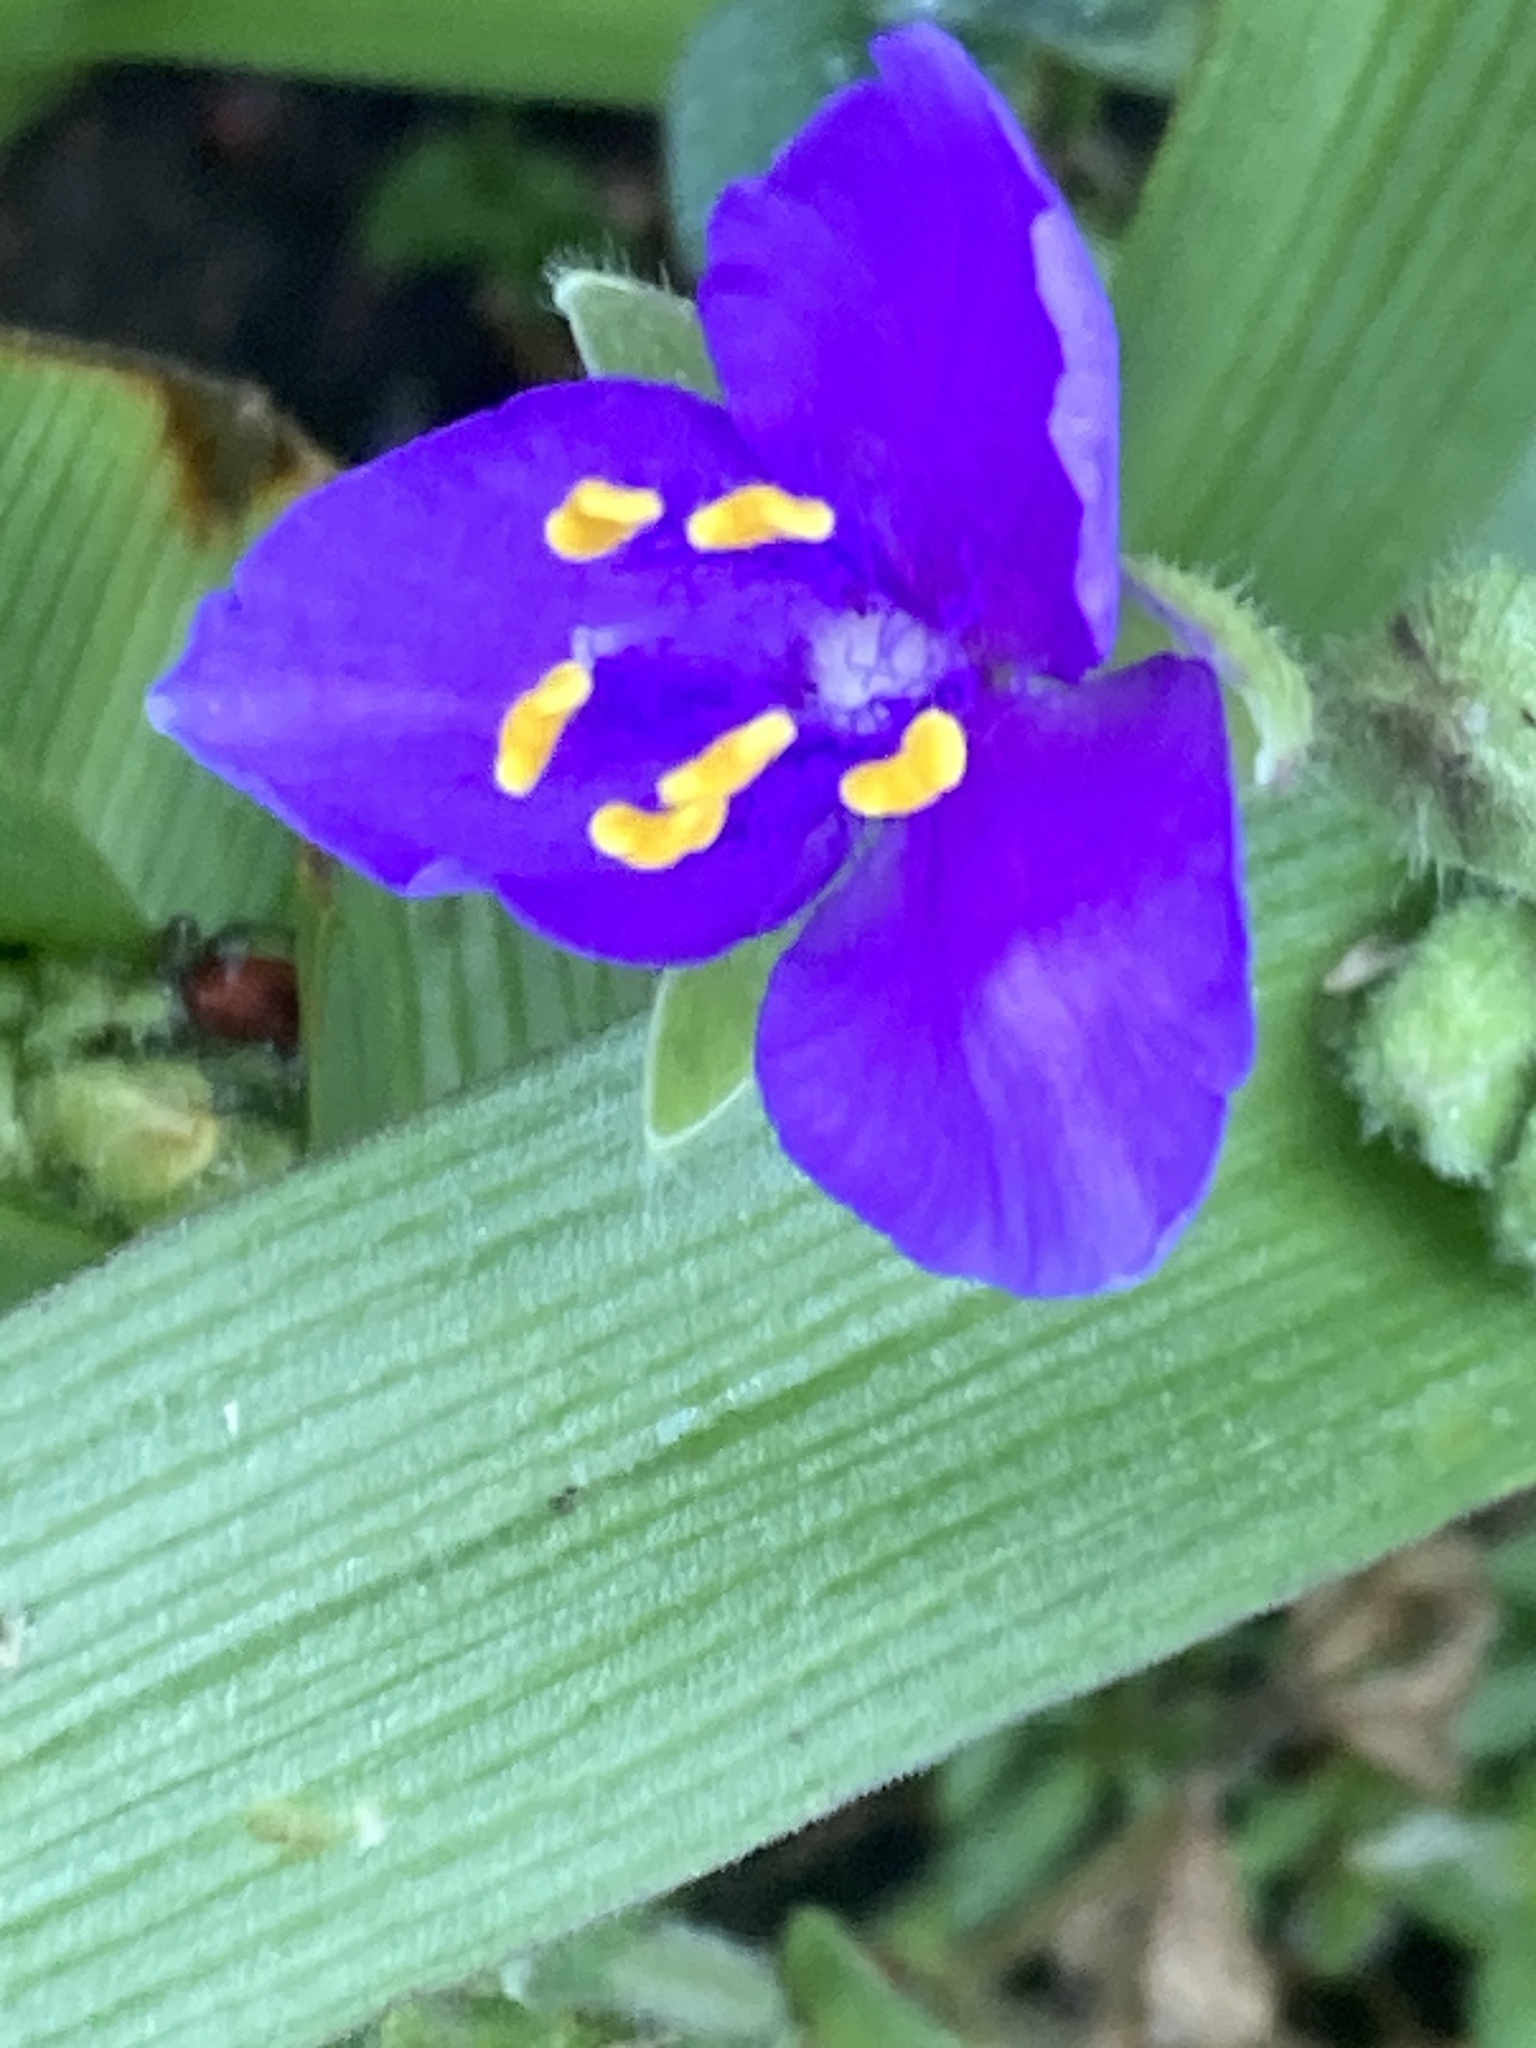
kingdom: Plantae
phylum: Tracheophyta
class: Liliopsida
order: Commelinales
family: Commelinaceae
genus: Tradescantia
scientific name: Tradescantia gigantea
